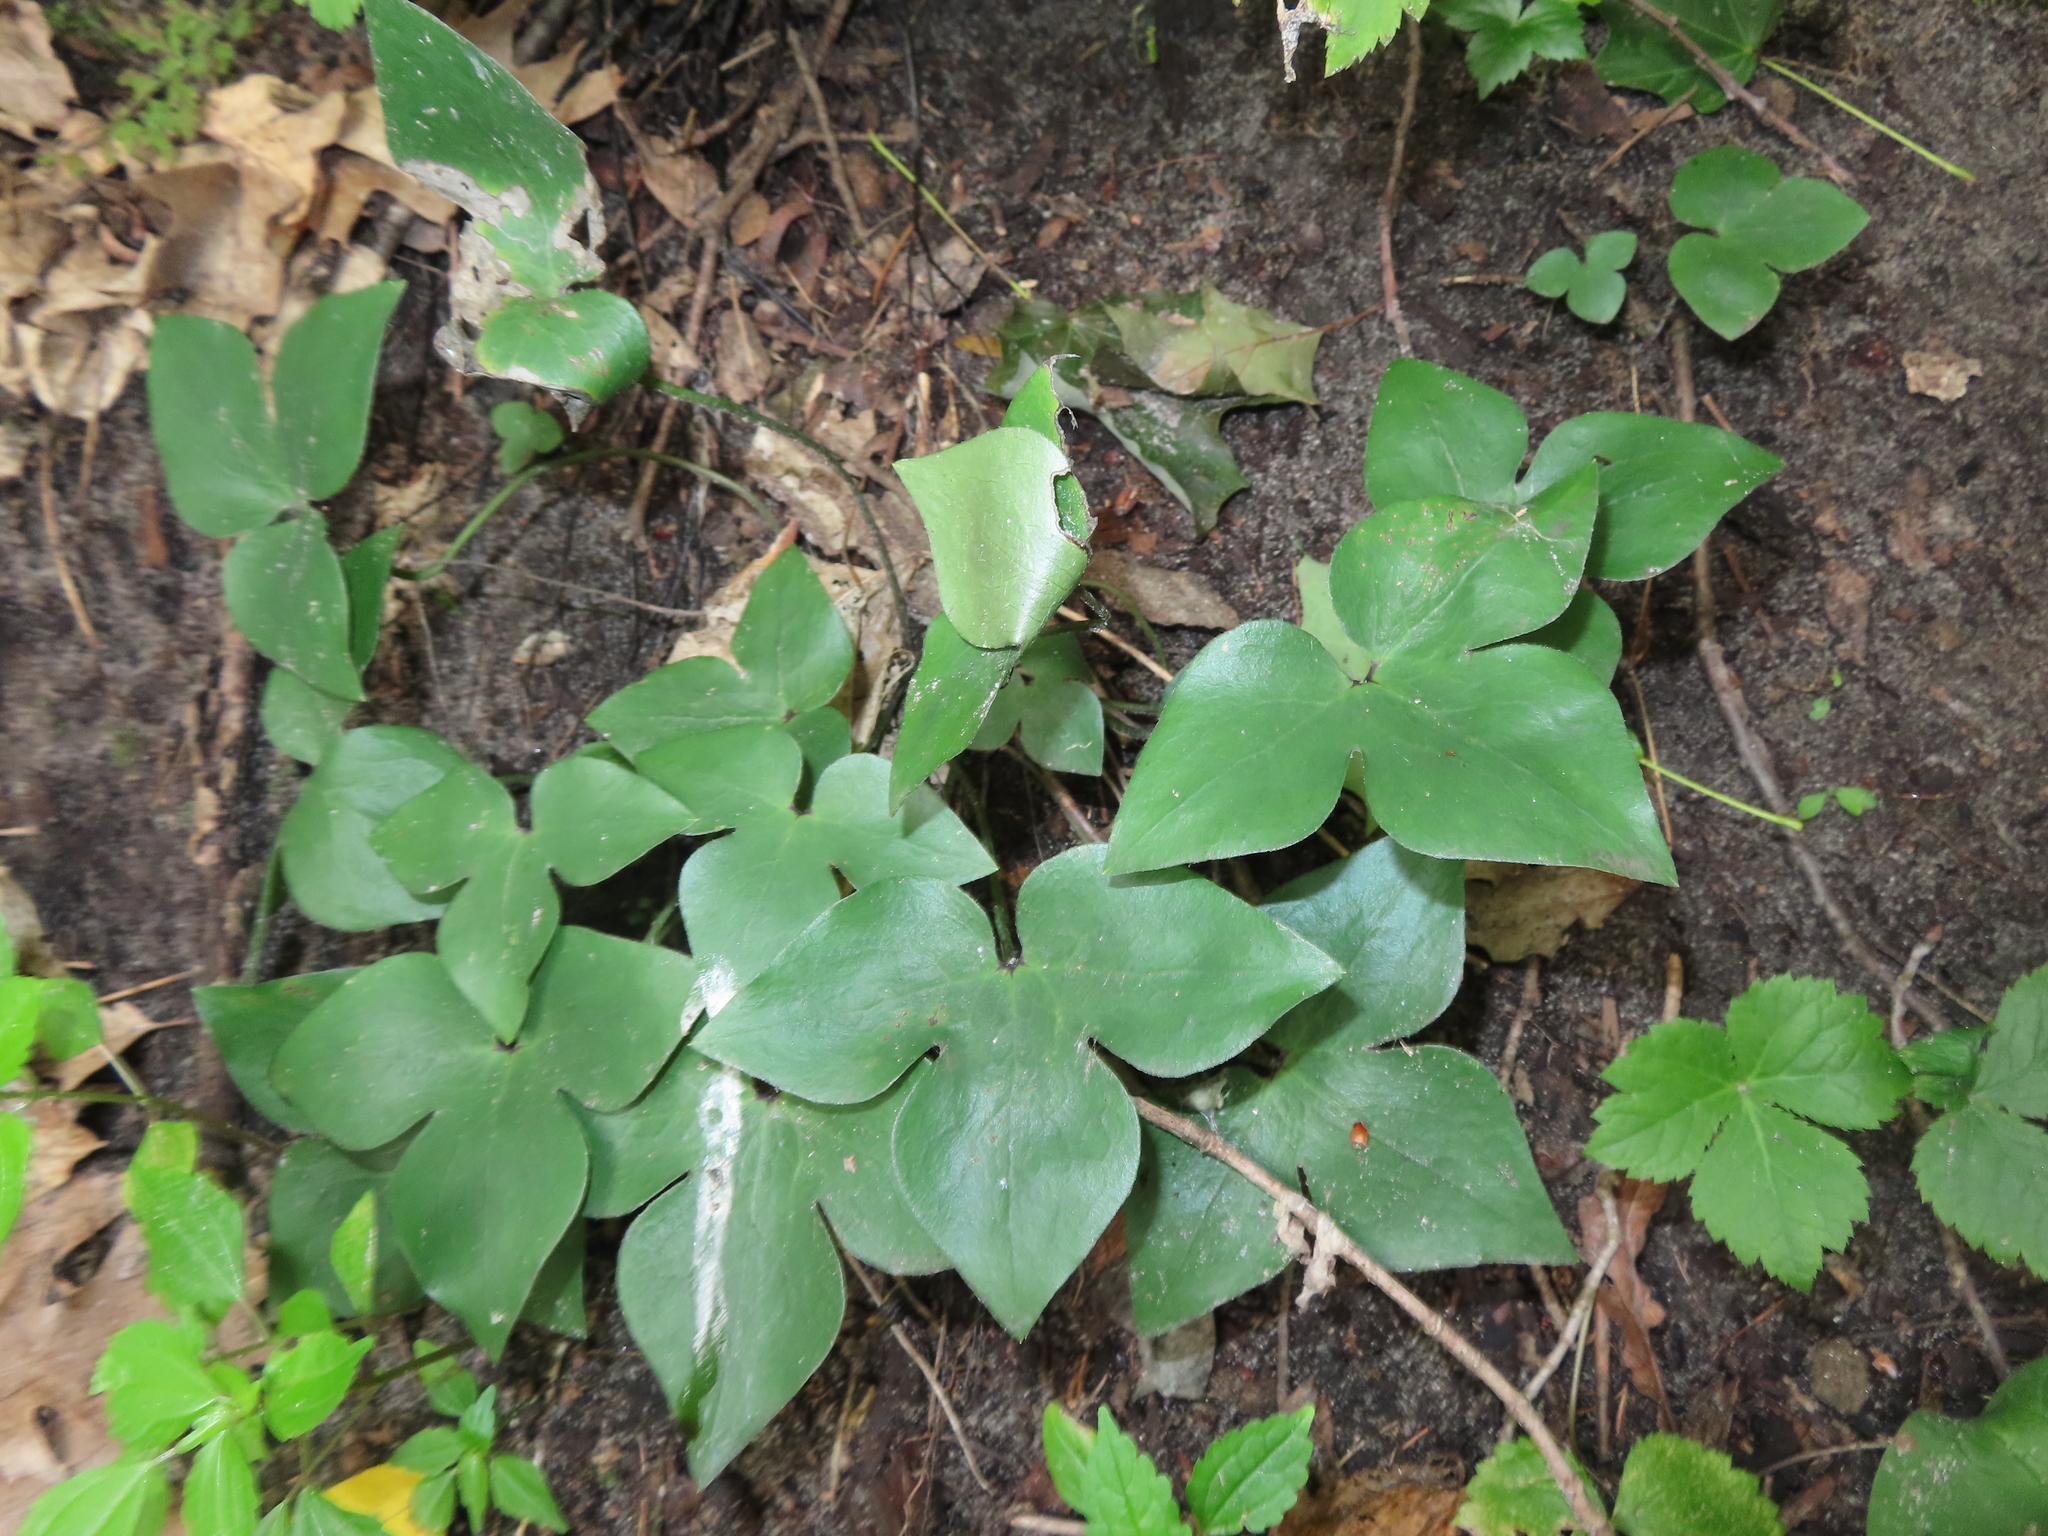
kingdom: Plantae
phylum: Tracheophyta
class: Magnoliopsida
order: Ranunculales
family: Ranunculaceae
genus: Hepatica
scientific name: Hepatica acutiloba
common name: Sharp-lobed hepatica
